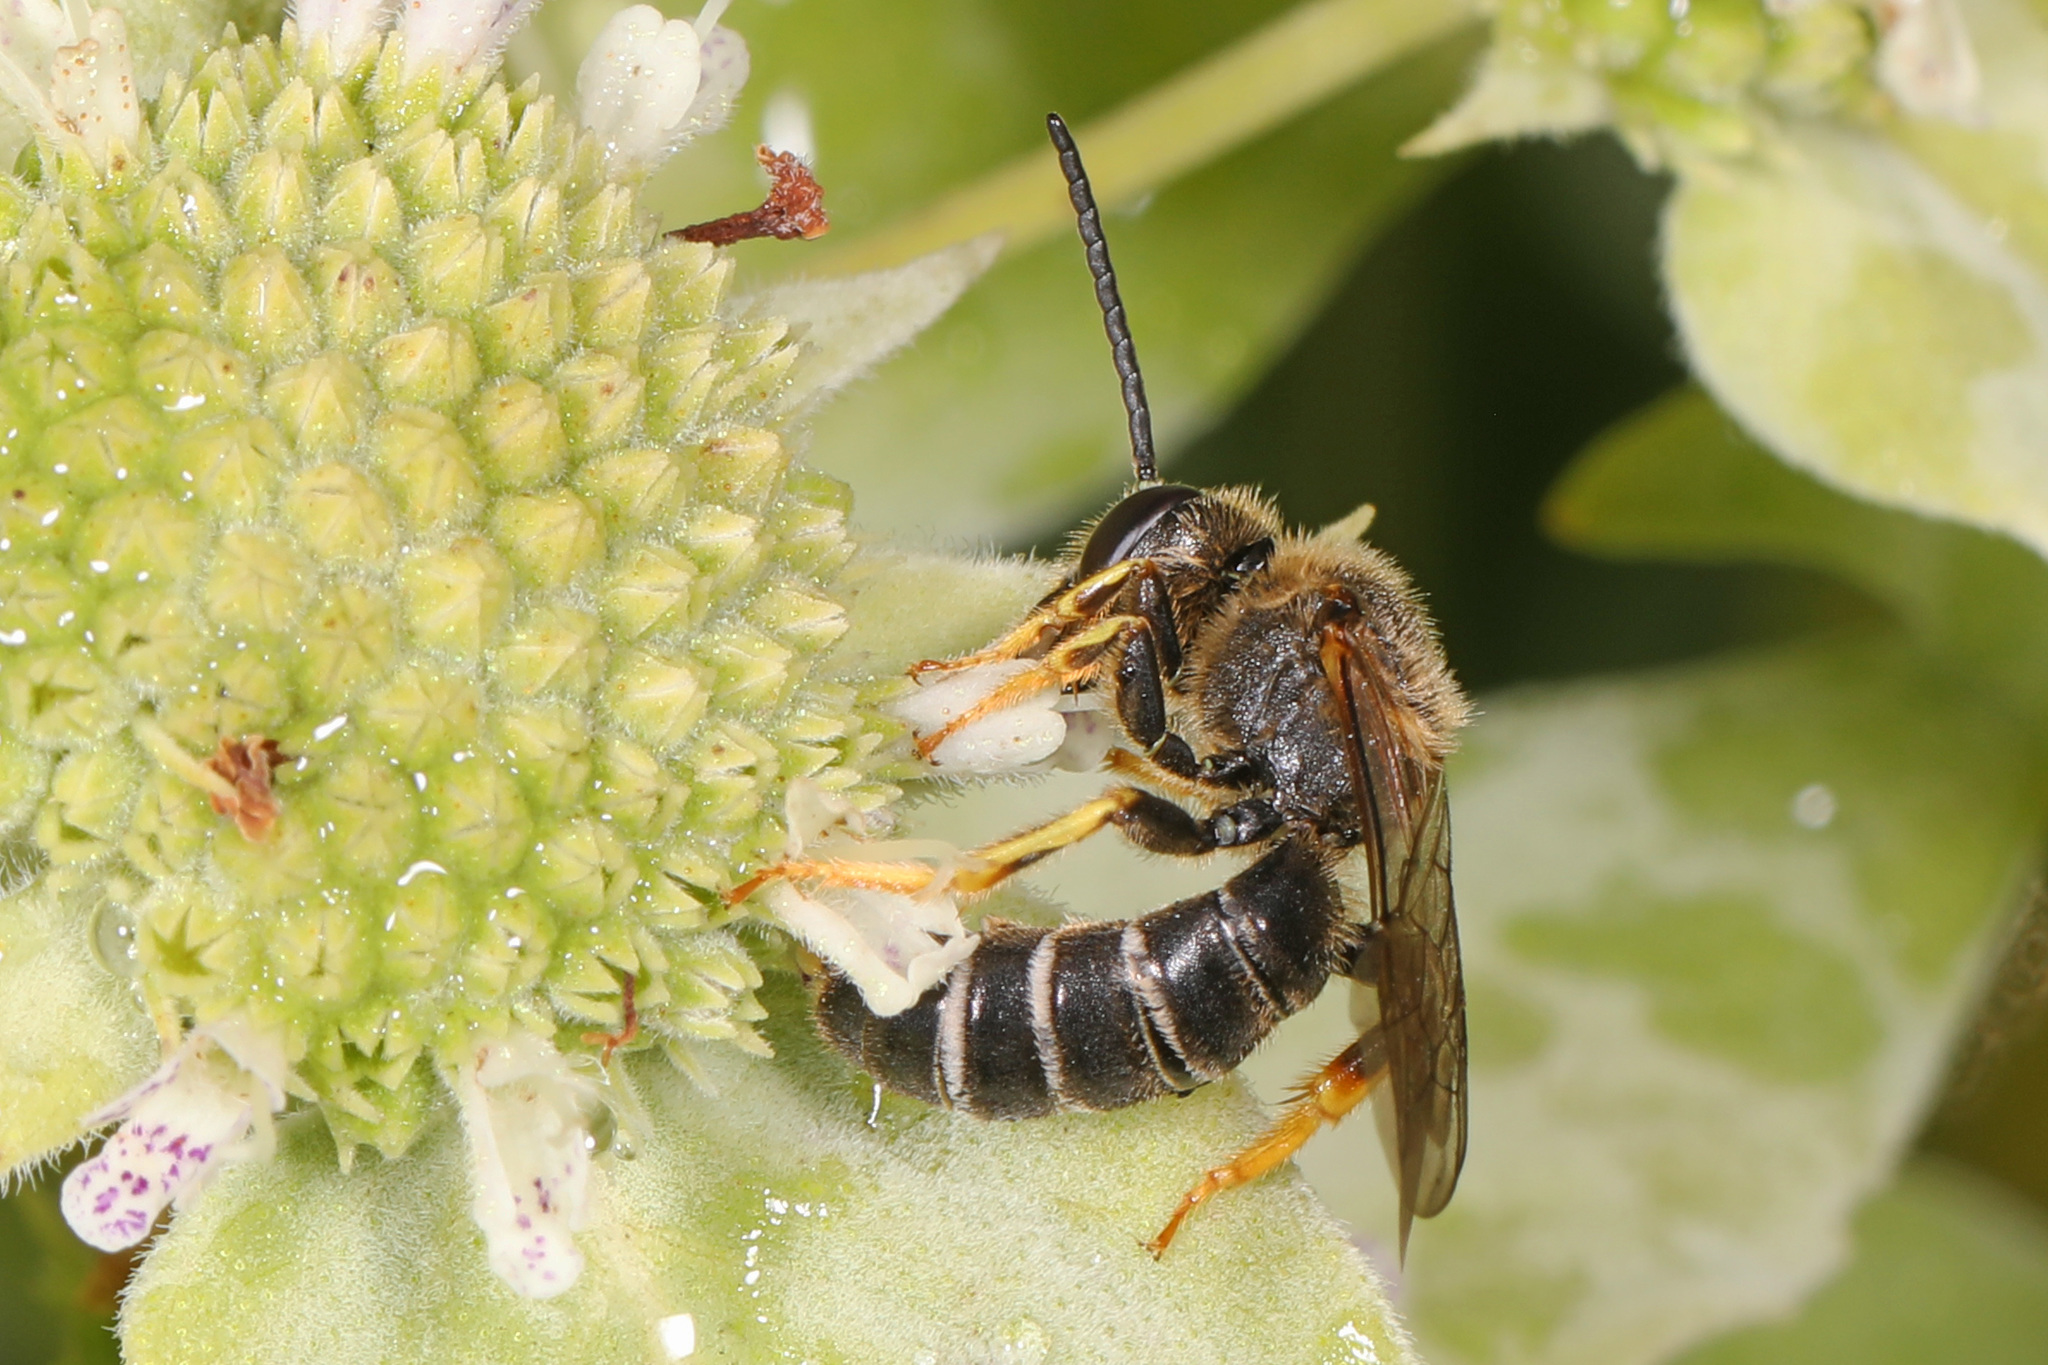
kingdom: Animalia
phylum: Arthropoda
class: Insecta
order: Hymenoptera
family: Halictidae
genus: Halictus
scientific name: Halictus rubicundus
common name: Orange-legged furrow bee
